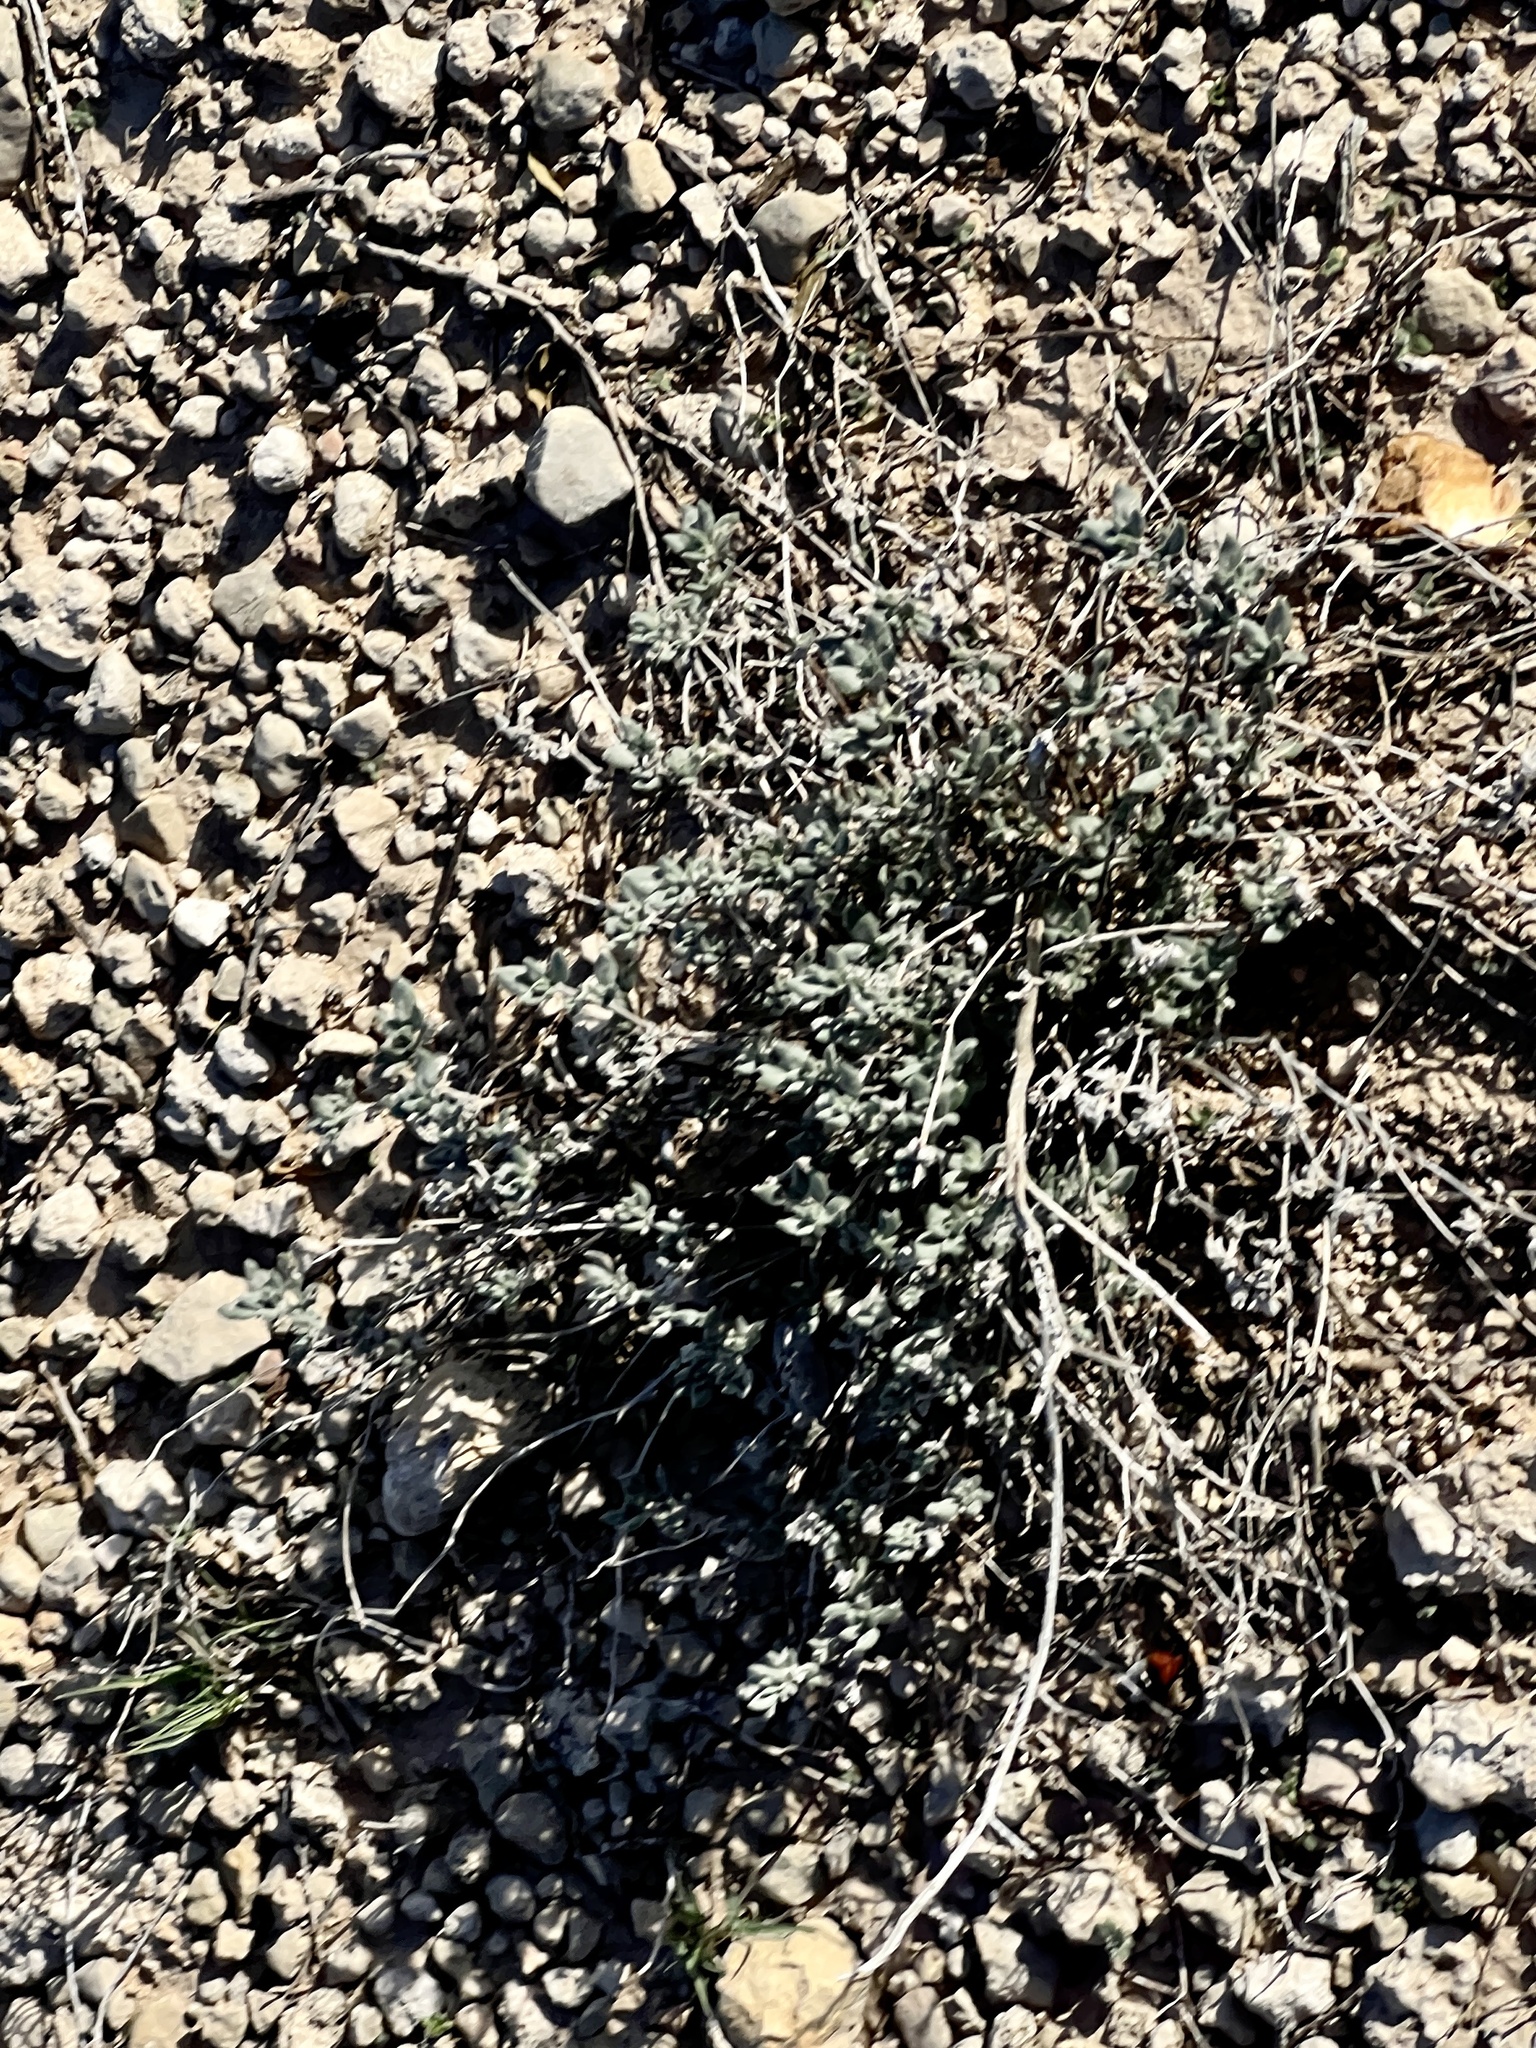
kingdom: Plantae
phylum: Tracheophyta
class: Magnoliopsida
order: Boraginales
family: Ehretiaceae
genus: Tiquilia
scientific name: Tiquilia canescens
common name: Hairy tiquilia
